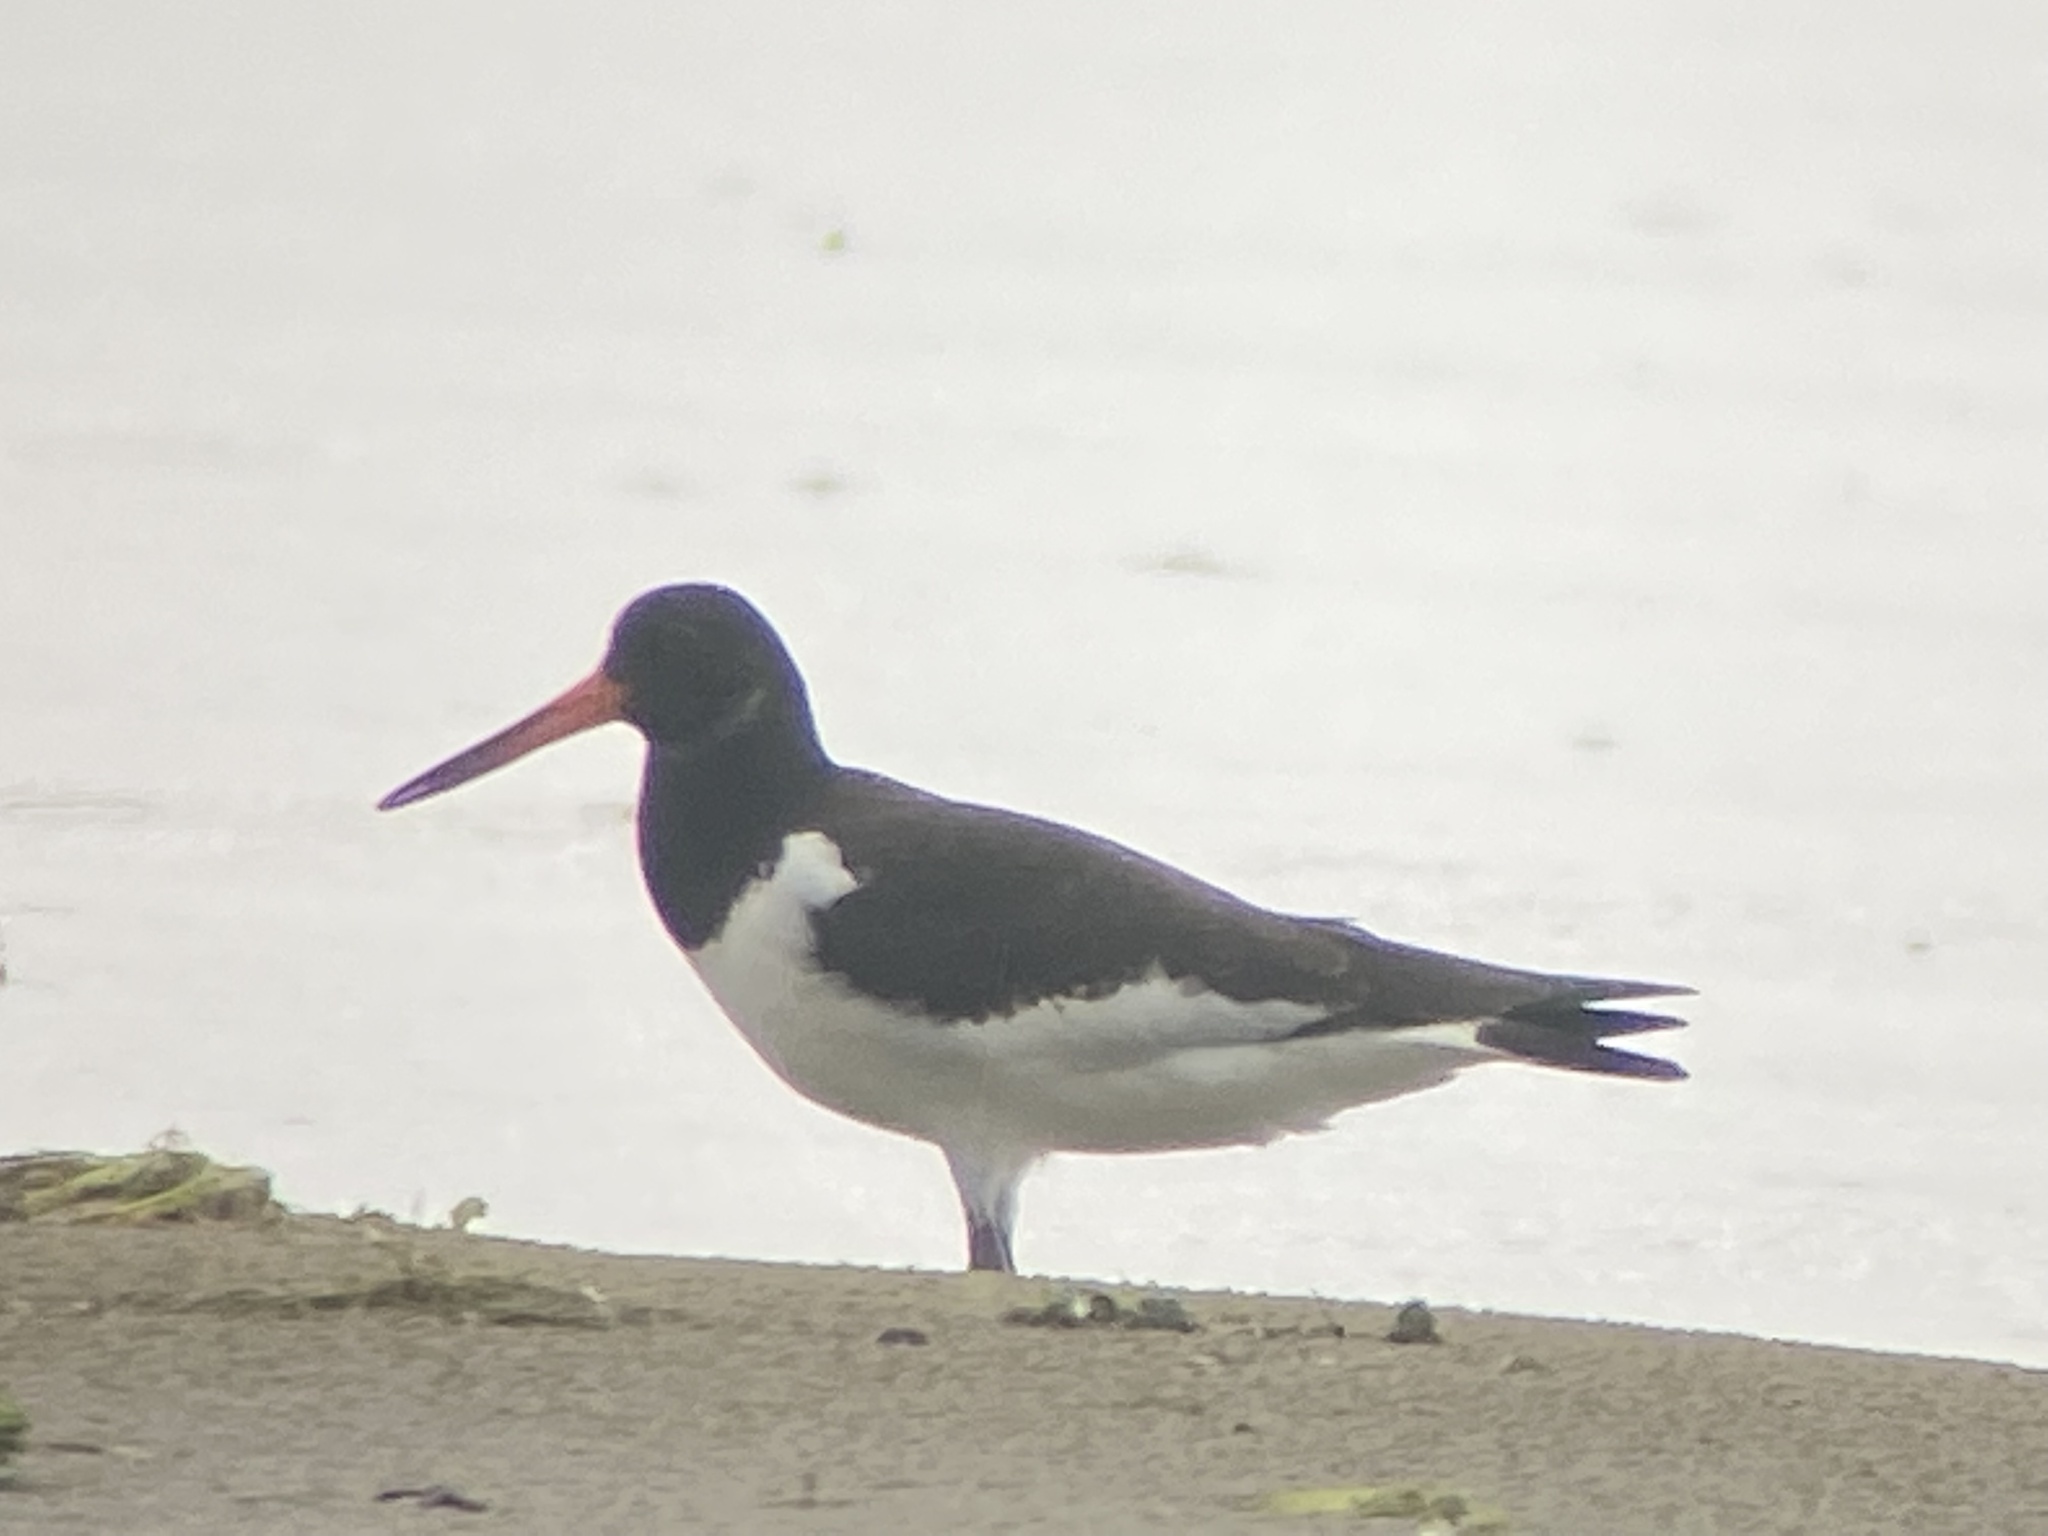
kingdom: Animalia
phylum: Chordata
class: Aves
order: Charadriiformes
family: Haematopodidae
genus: Haematopus
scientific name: Haematopus ostralegus
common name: Eurasian oystercatcher
